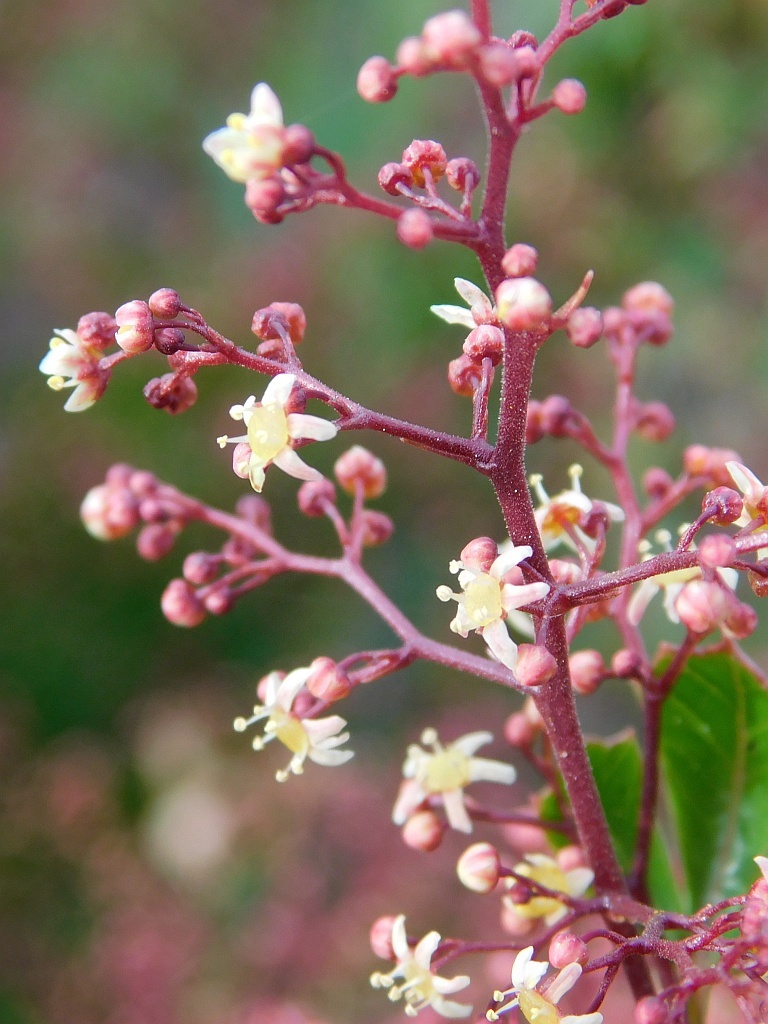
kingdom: Plantae
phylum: Tracheophyta
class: Magnoliopsida
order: Sapindales
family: Anacardiaceae
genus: Searsia
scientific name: Searsia scytophylla
